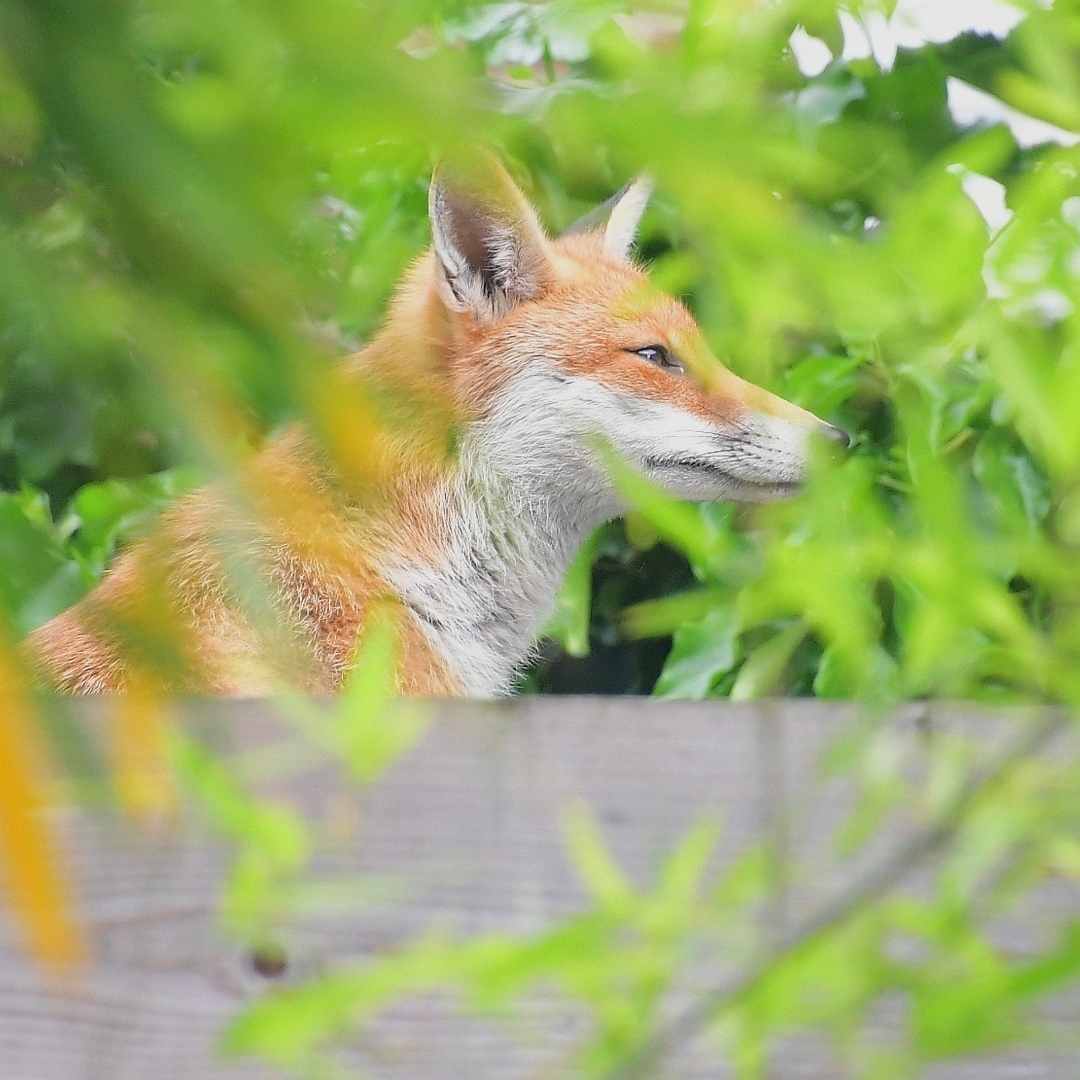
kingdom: Animalia
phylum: Chordata
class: Mammalia
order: Carnivora
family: Canidae
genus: Vulpes
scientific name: Vulpes vulpes
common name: Red fox
